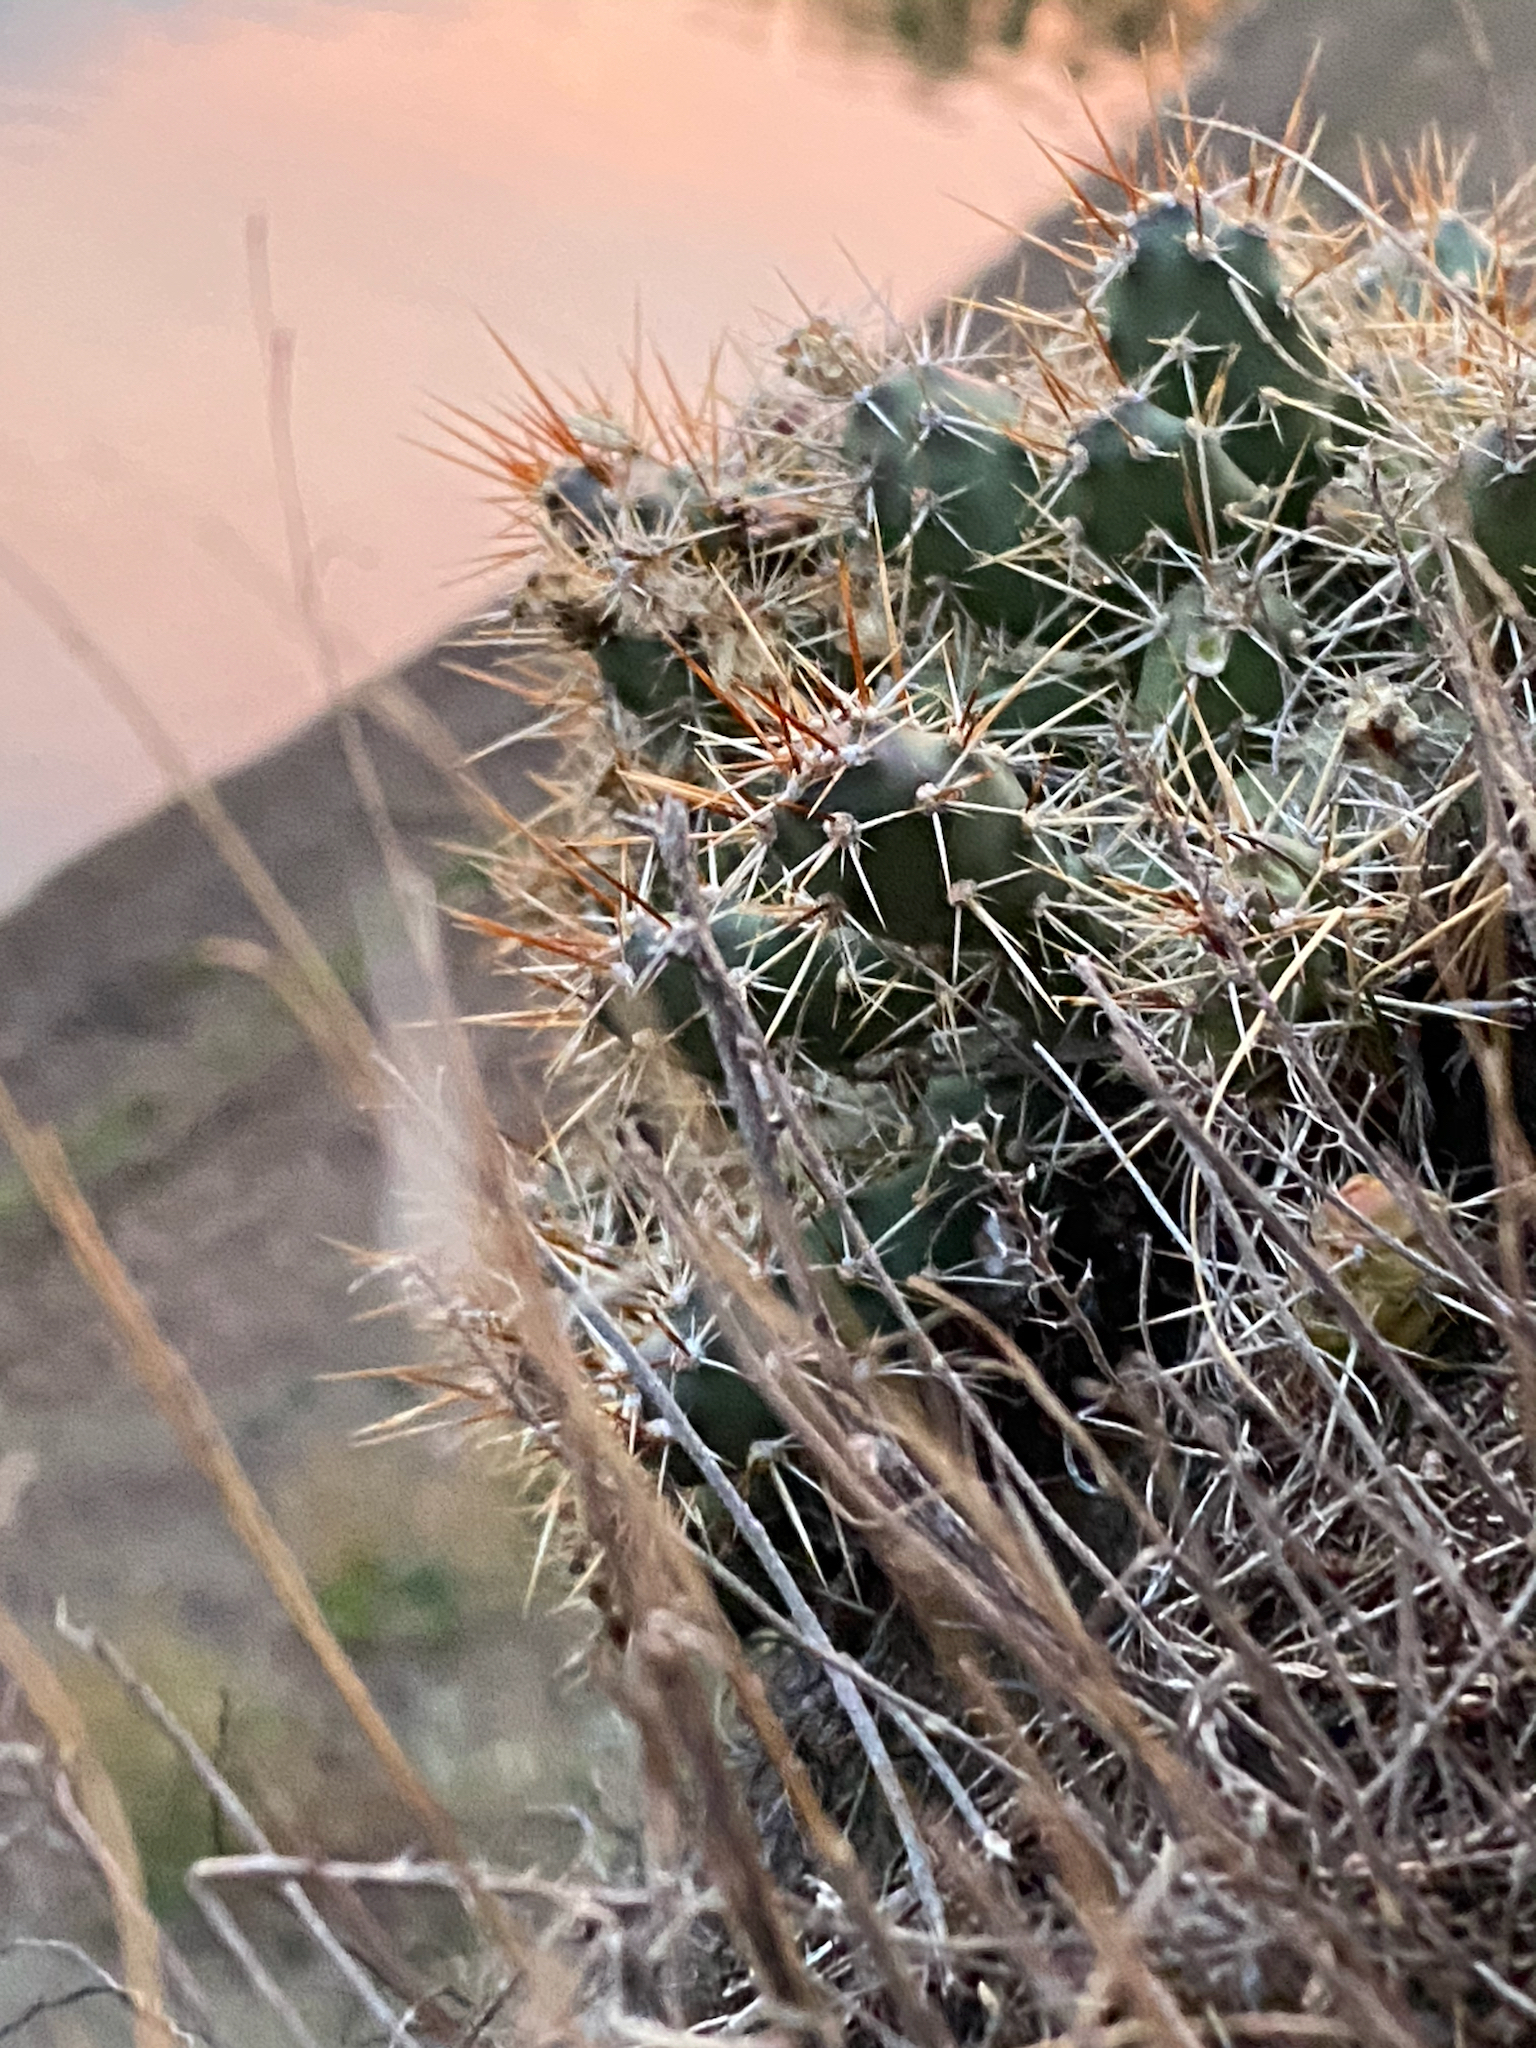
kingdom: Plantae
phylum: Tracheophyta
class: Magnoliopsida
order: Caryophyllales
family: Cactaceae
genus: Opuntia
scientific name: Opuntia fragilis
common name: Brittle cactus
